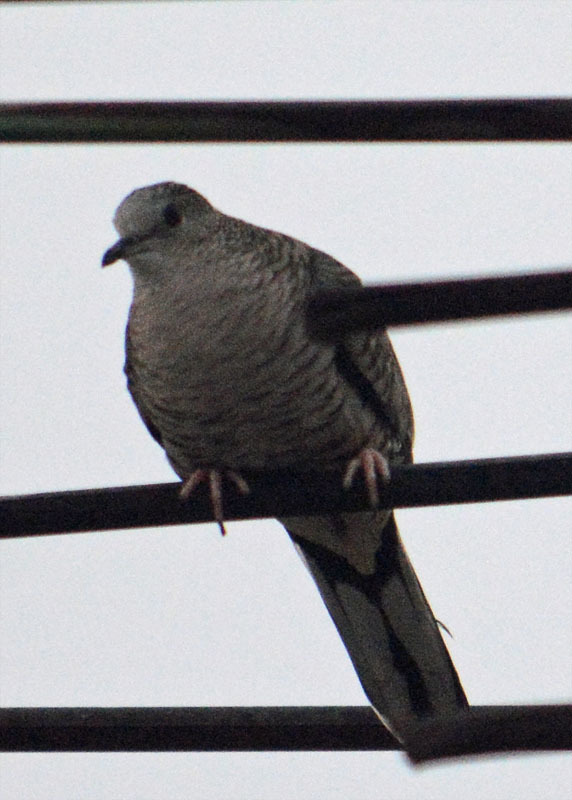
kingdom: Animalia
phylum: Chordata
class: Aves
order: Columbiformes
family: Columbidae
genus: Columbina
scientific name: Columbina inca
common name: Inca dove
